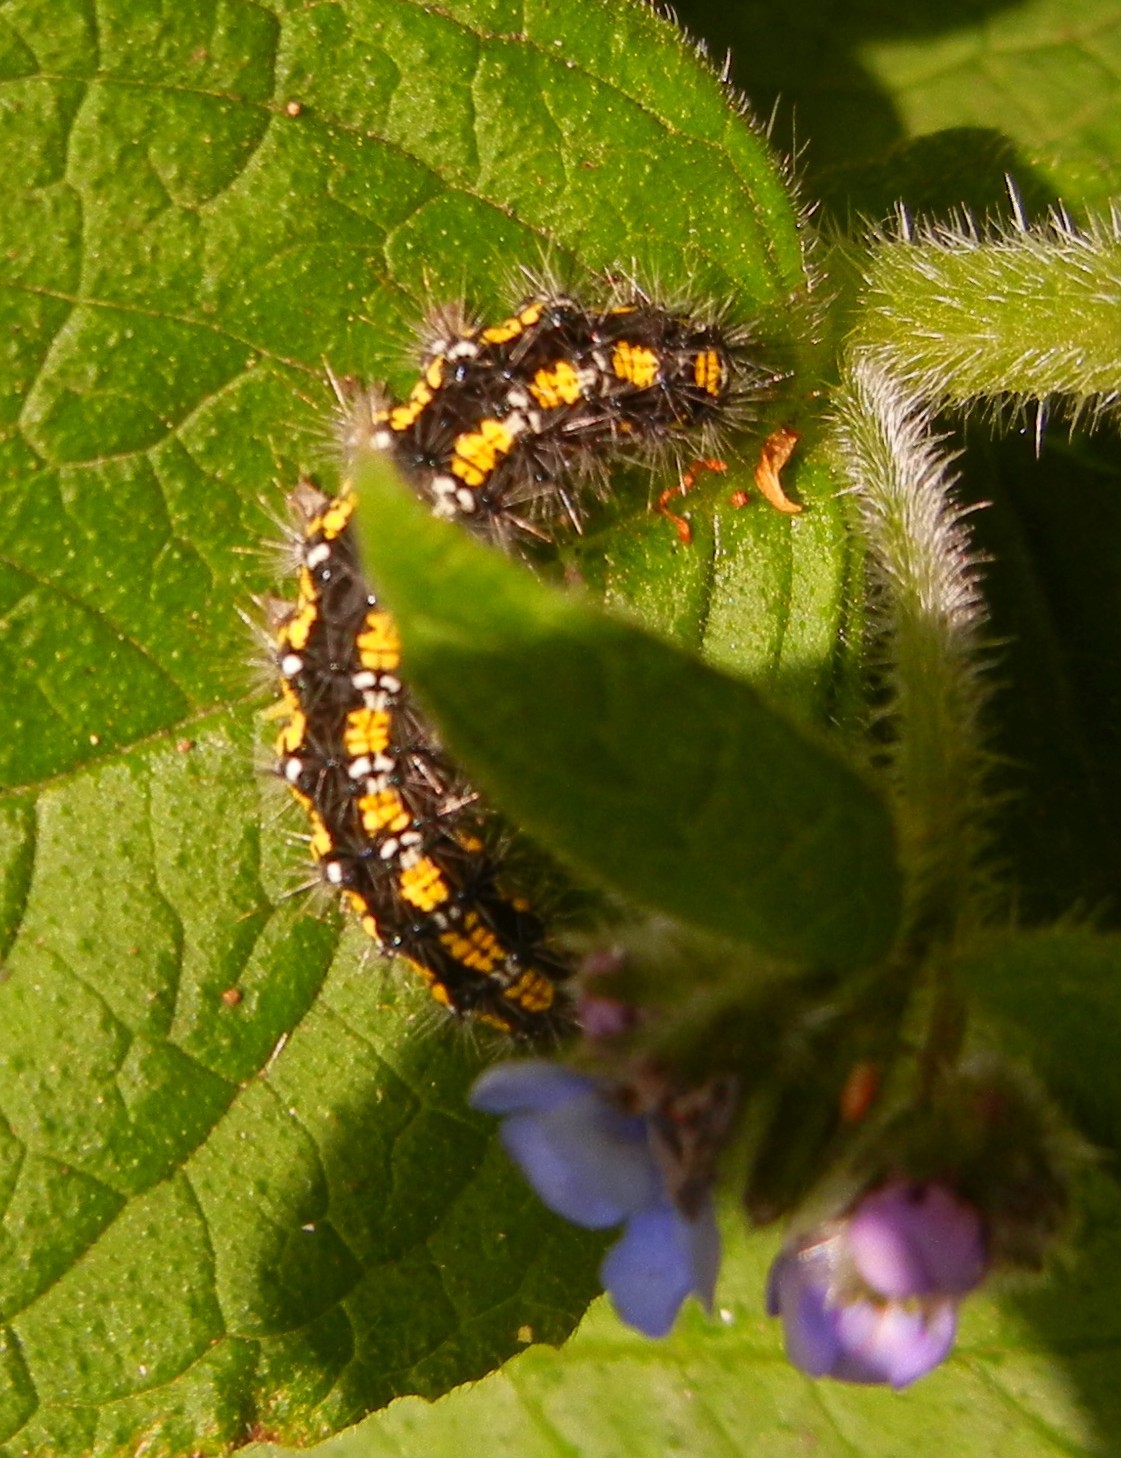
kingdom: Animalia
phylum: Arthropoda
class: Insecta
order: Lepidoptera
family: Erebidae
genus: Callimorpha
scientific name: Callimorpha dominula
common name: Scarlet tiger
